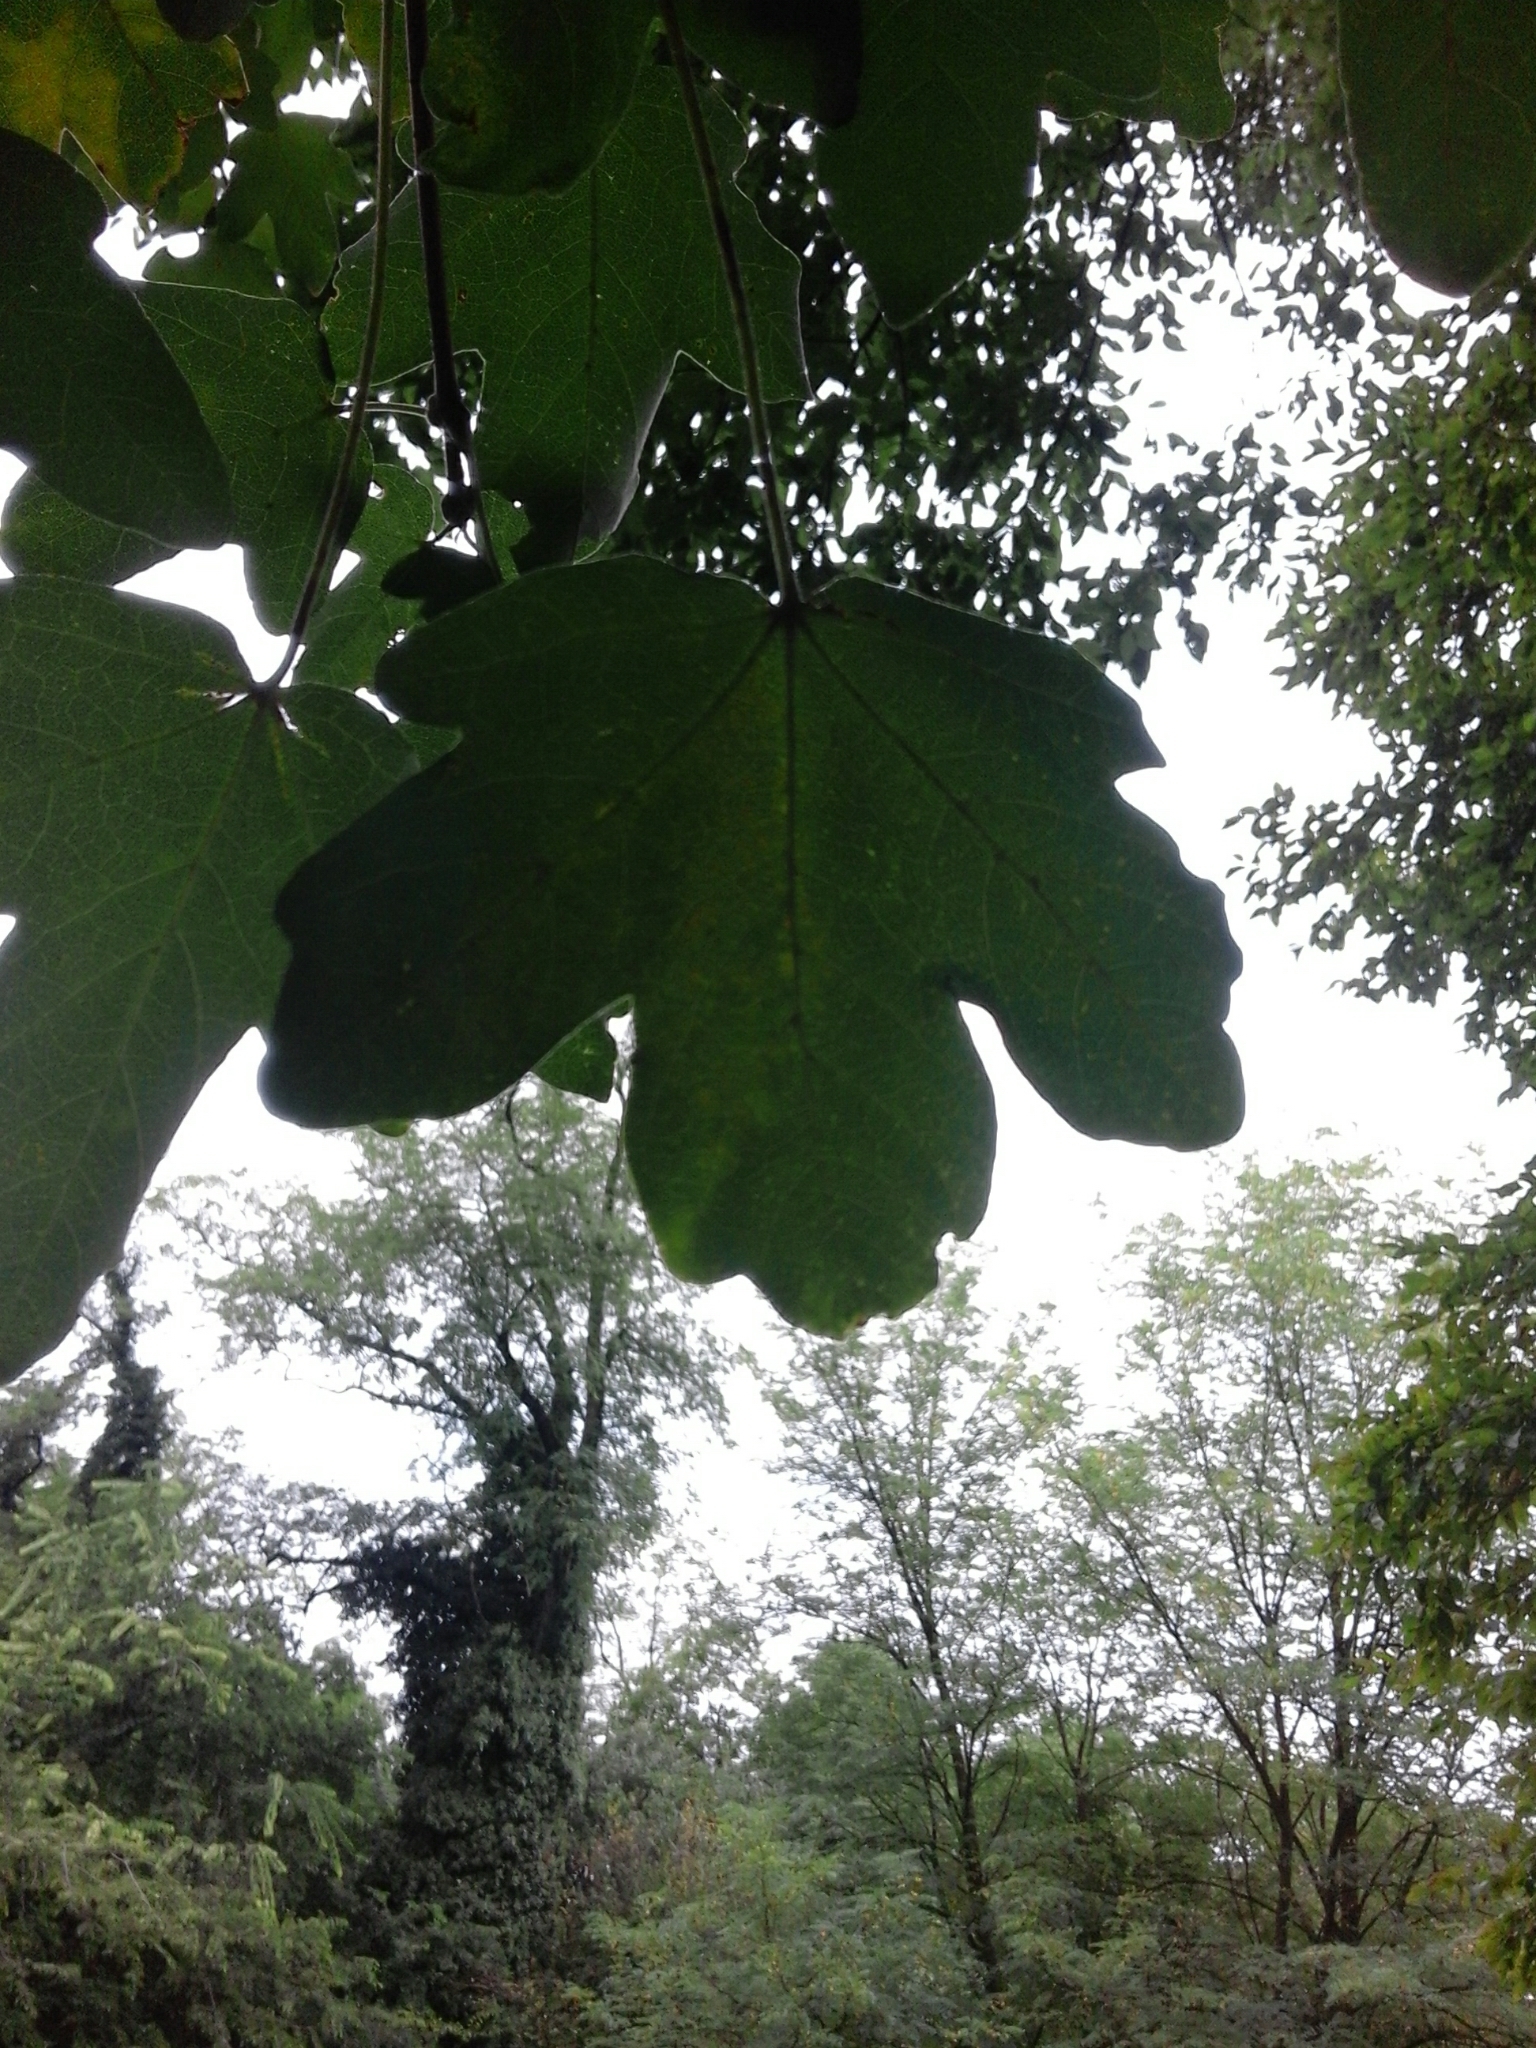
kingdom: Plantae
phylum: Tracheophyta
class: Magnoliopsida
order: Sapindales
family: Sapindaceae
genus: Acer
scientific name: Acer campestre
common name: Field maple
